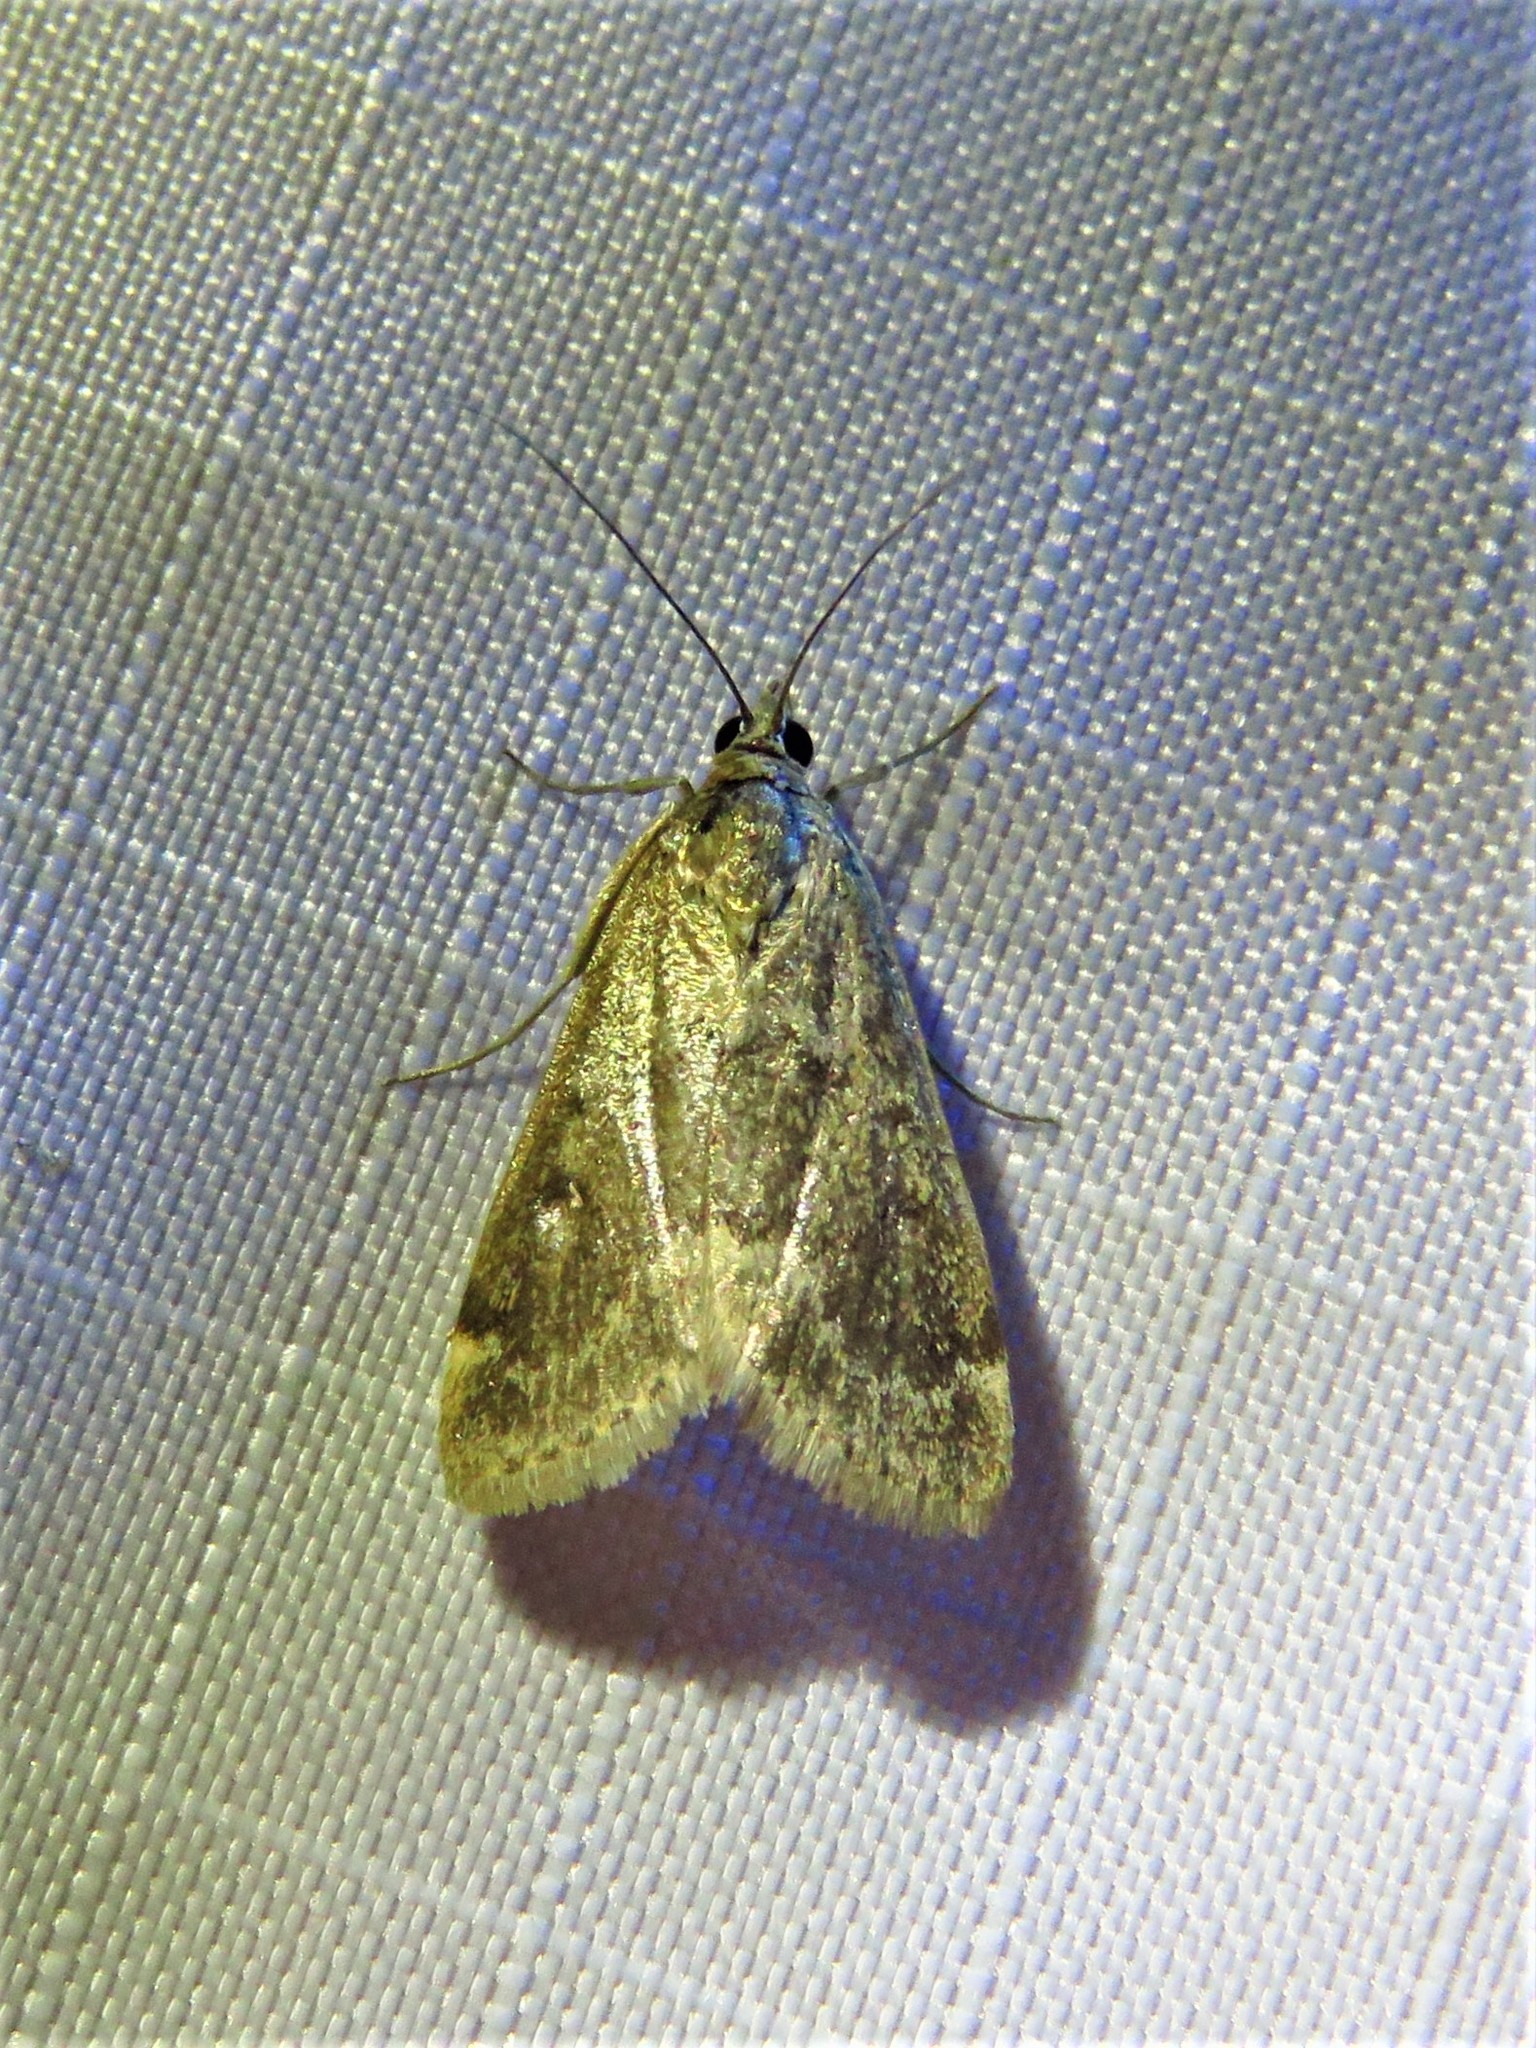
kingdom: Animalia
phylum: Arthropoda
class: Insecta
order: Lepidoptera
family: Crambidae
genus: Achyra
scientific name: Achyra rantalis
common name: Garden webworm
